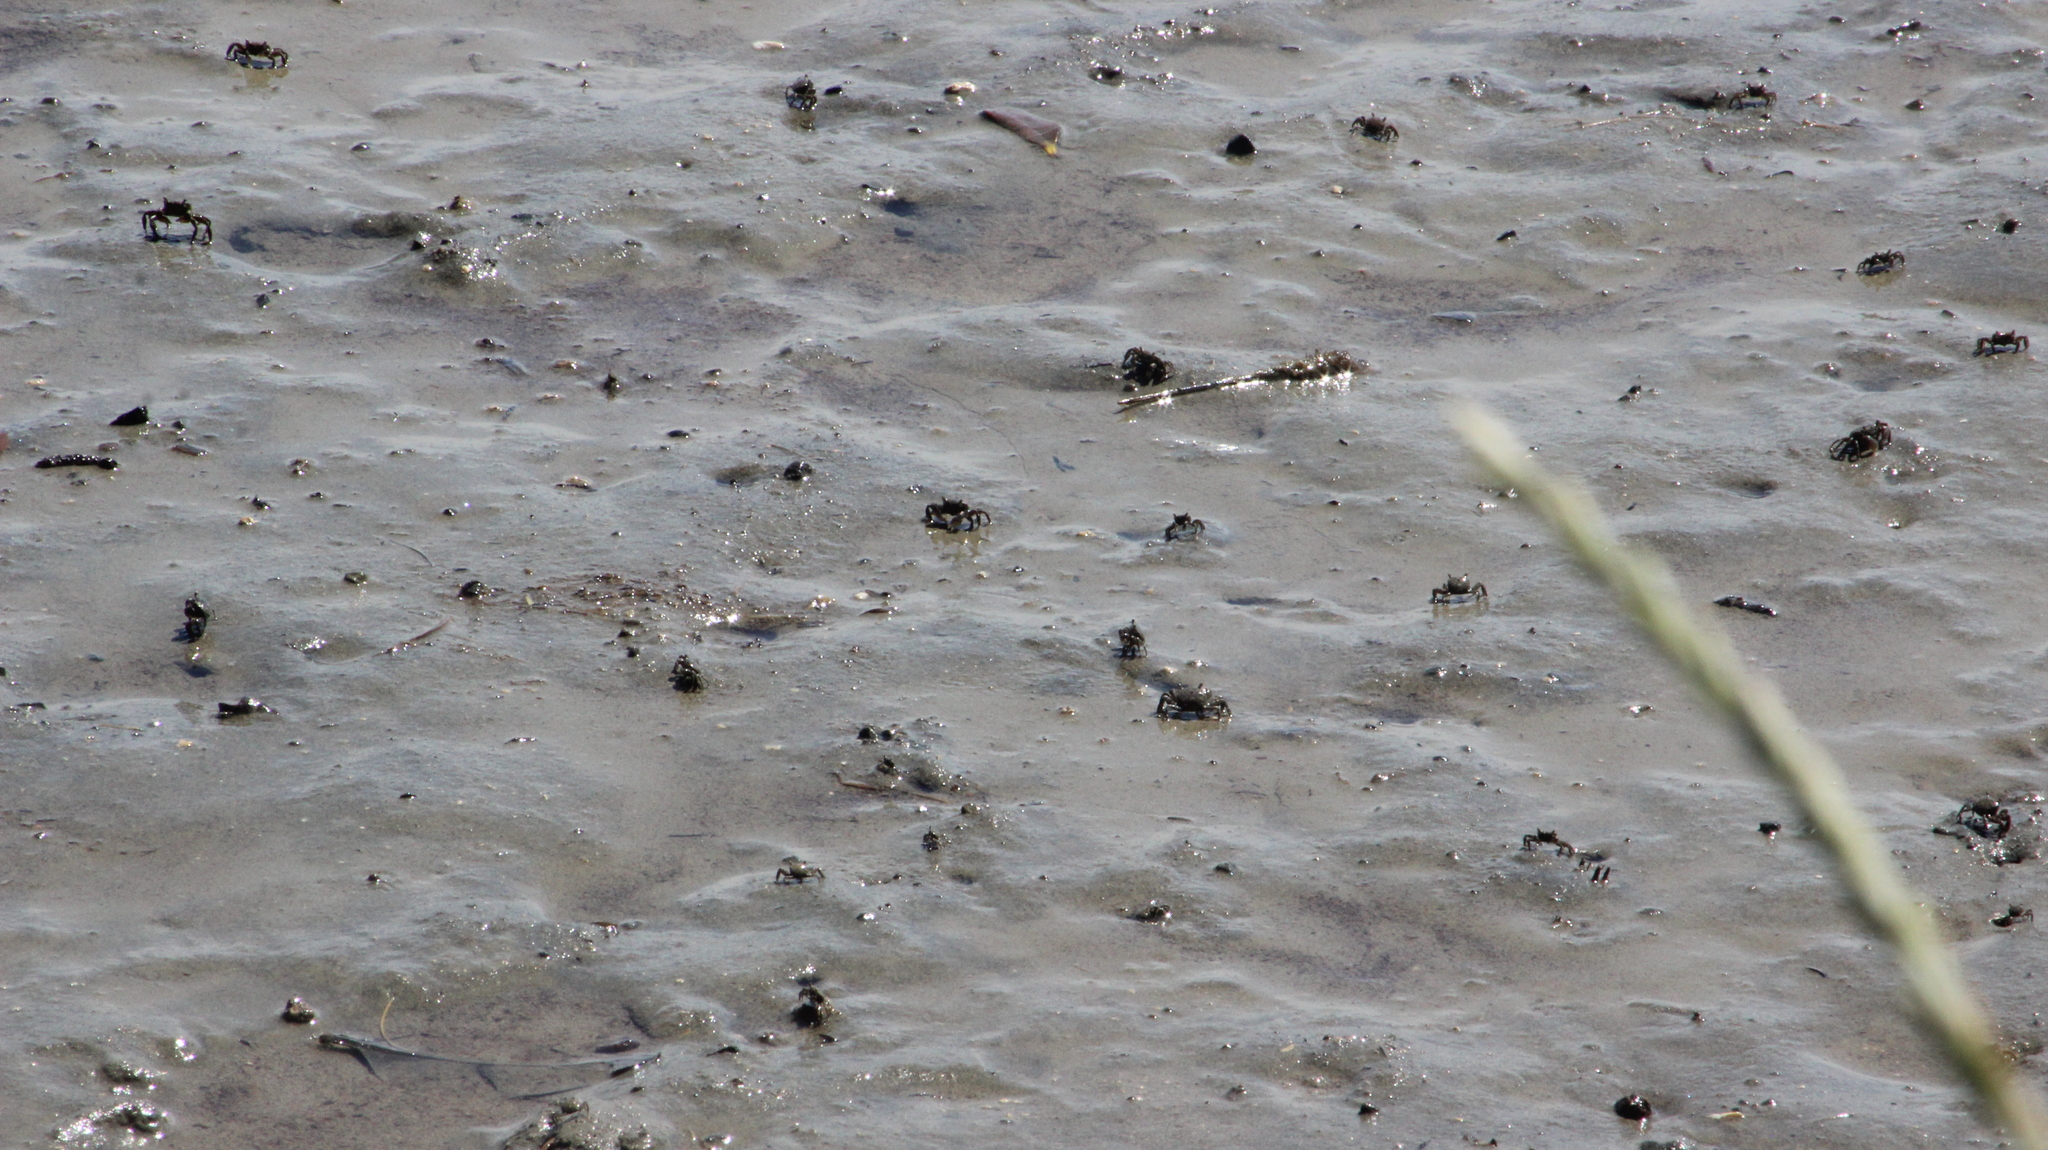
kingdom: Animalia
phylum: Arthropoda
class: Malacostraca
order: Decapoda
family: Varunidae
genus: Austrohelice
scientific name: Austrohelice crassa
